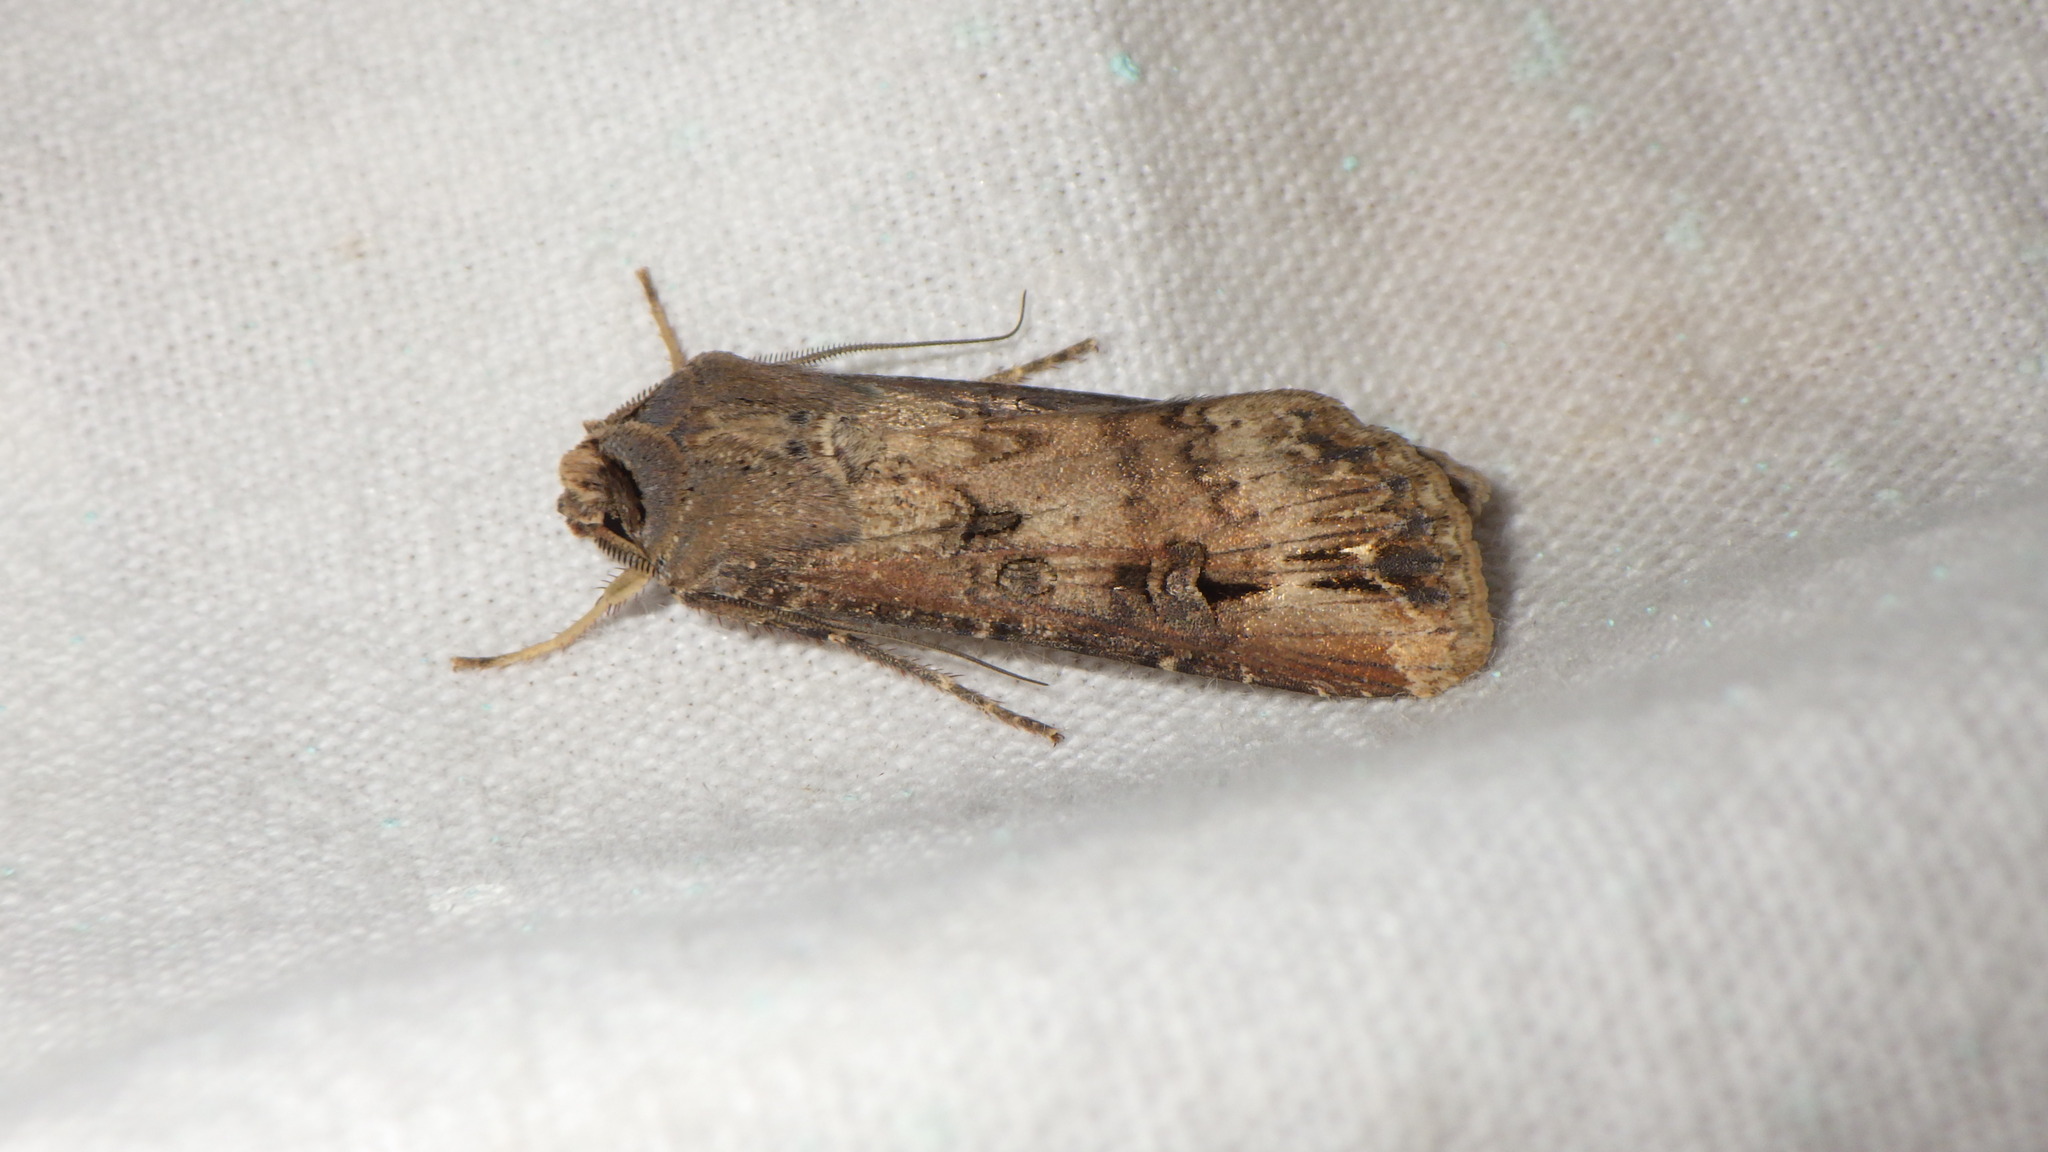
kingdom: Animalia
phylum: Arthropoda
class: Insecta
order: Lepidoptera
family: Noctuidae
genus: Agrotis
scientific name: Agrotis ipsilon
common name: Dark sword-grass
